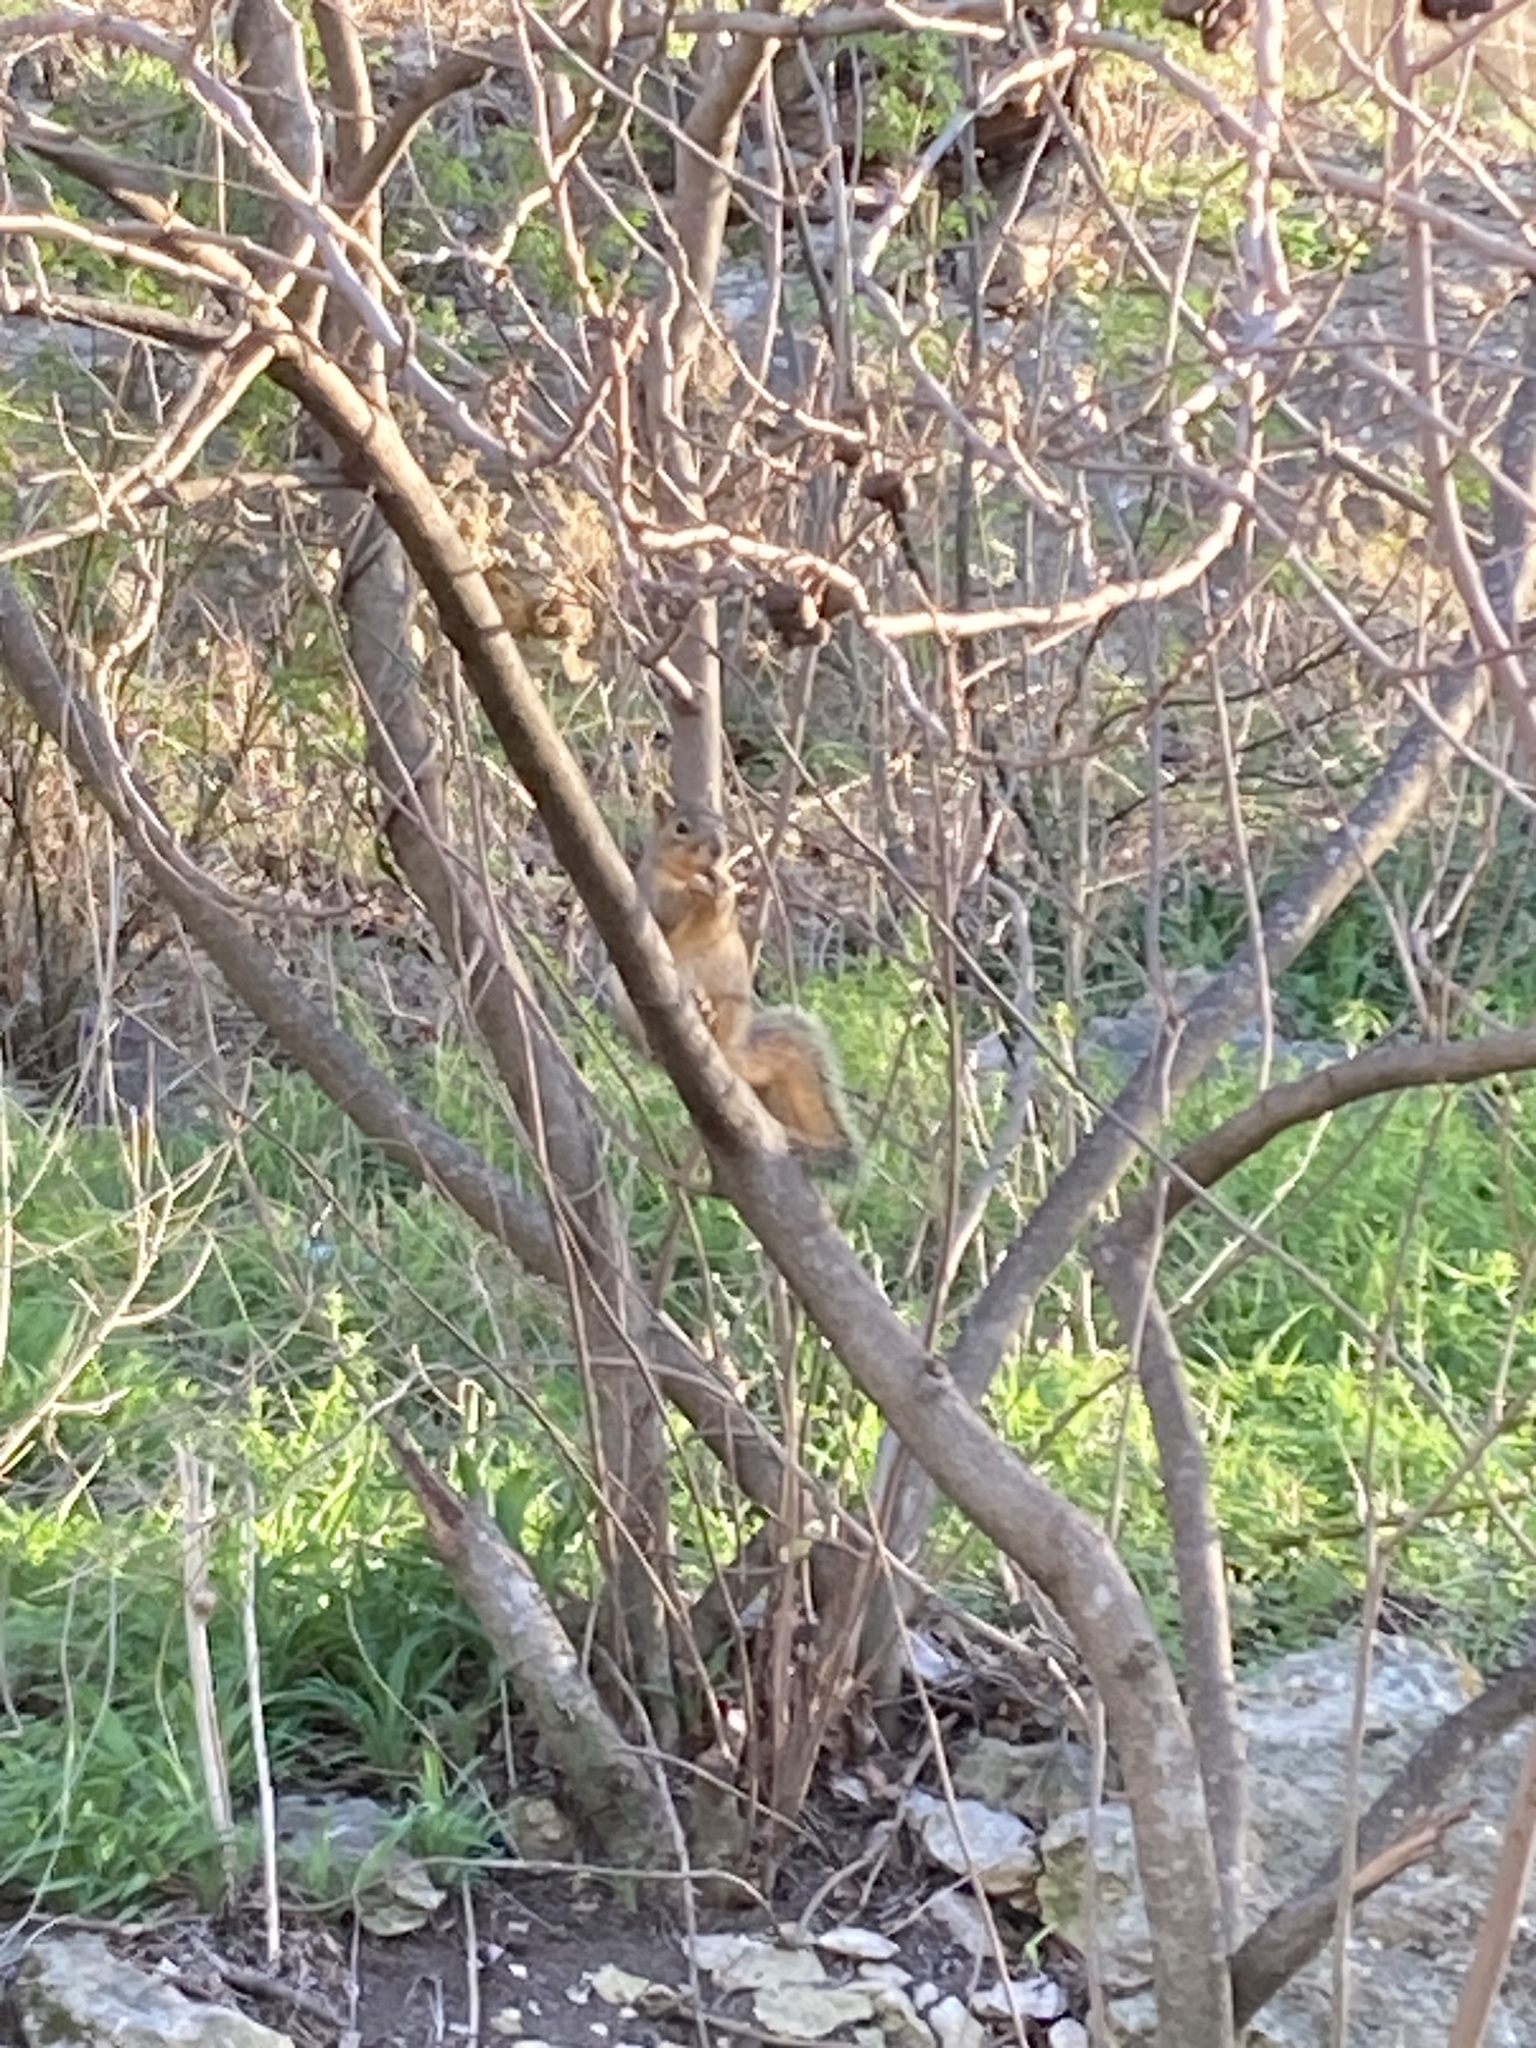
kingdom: Animalia
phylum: Chordata
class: Mammalia
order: Rodentia
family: Sciuridae
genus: Sciurus
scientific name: Sciurus niger
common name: Fox squirrel
